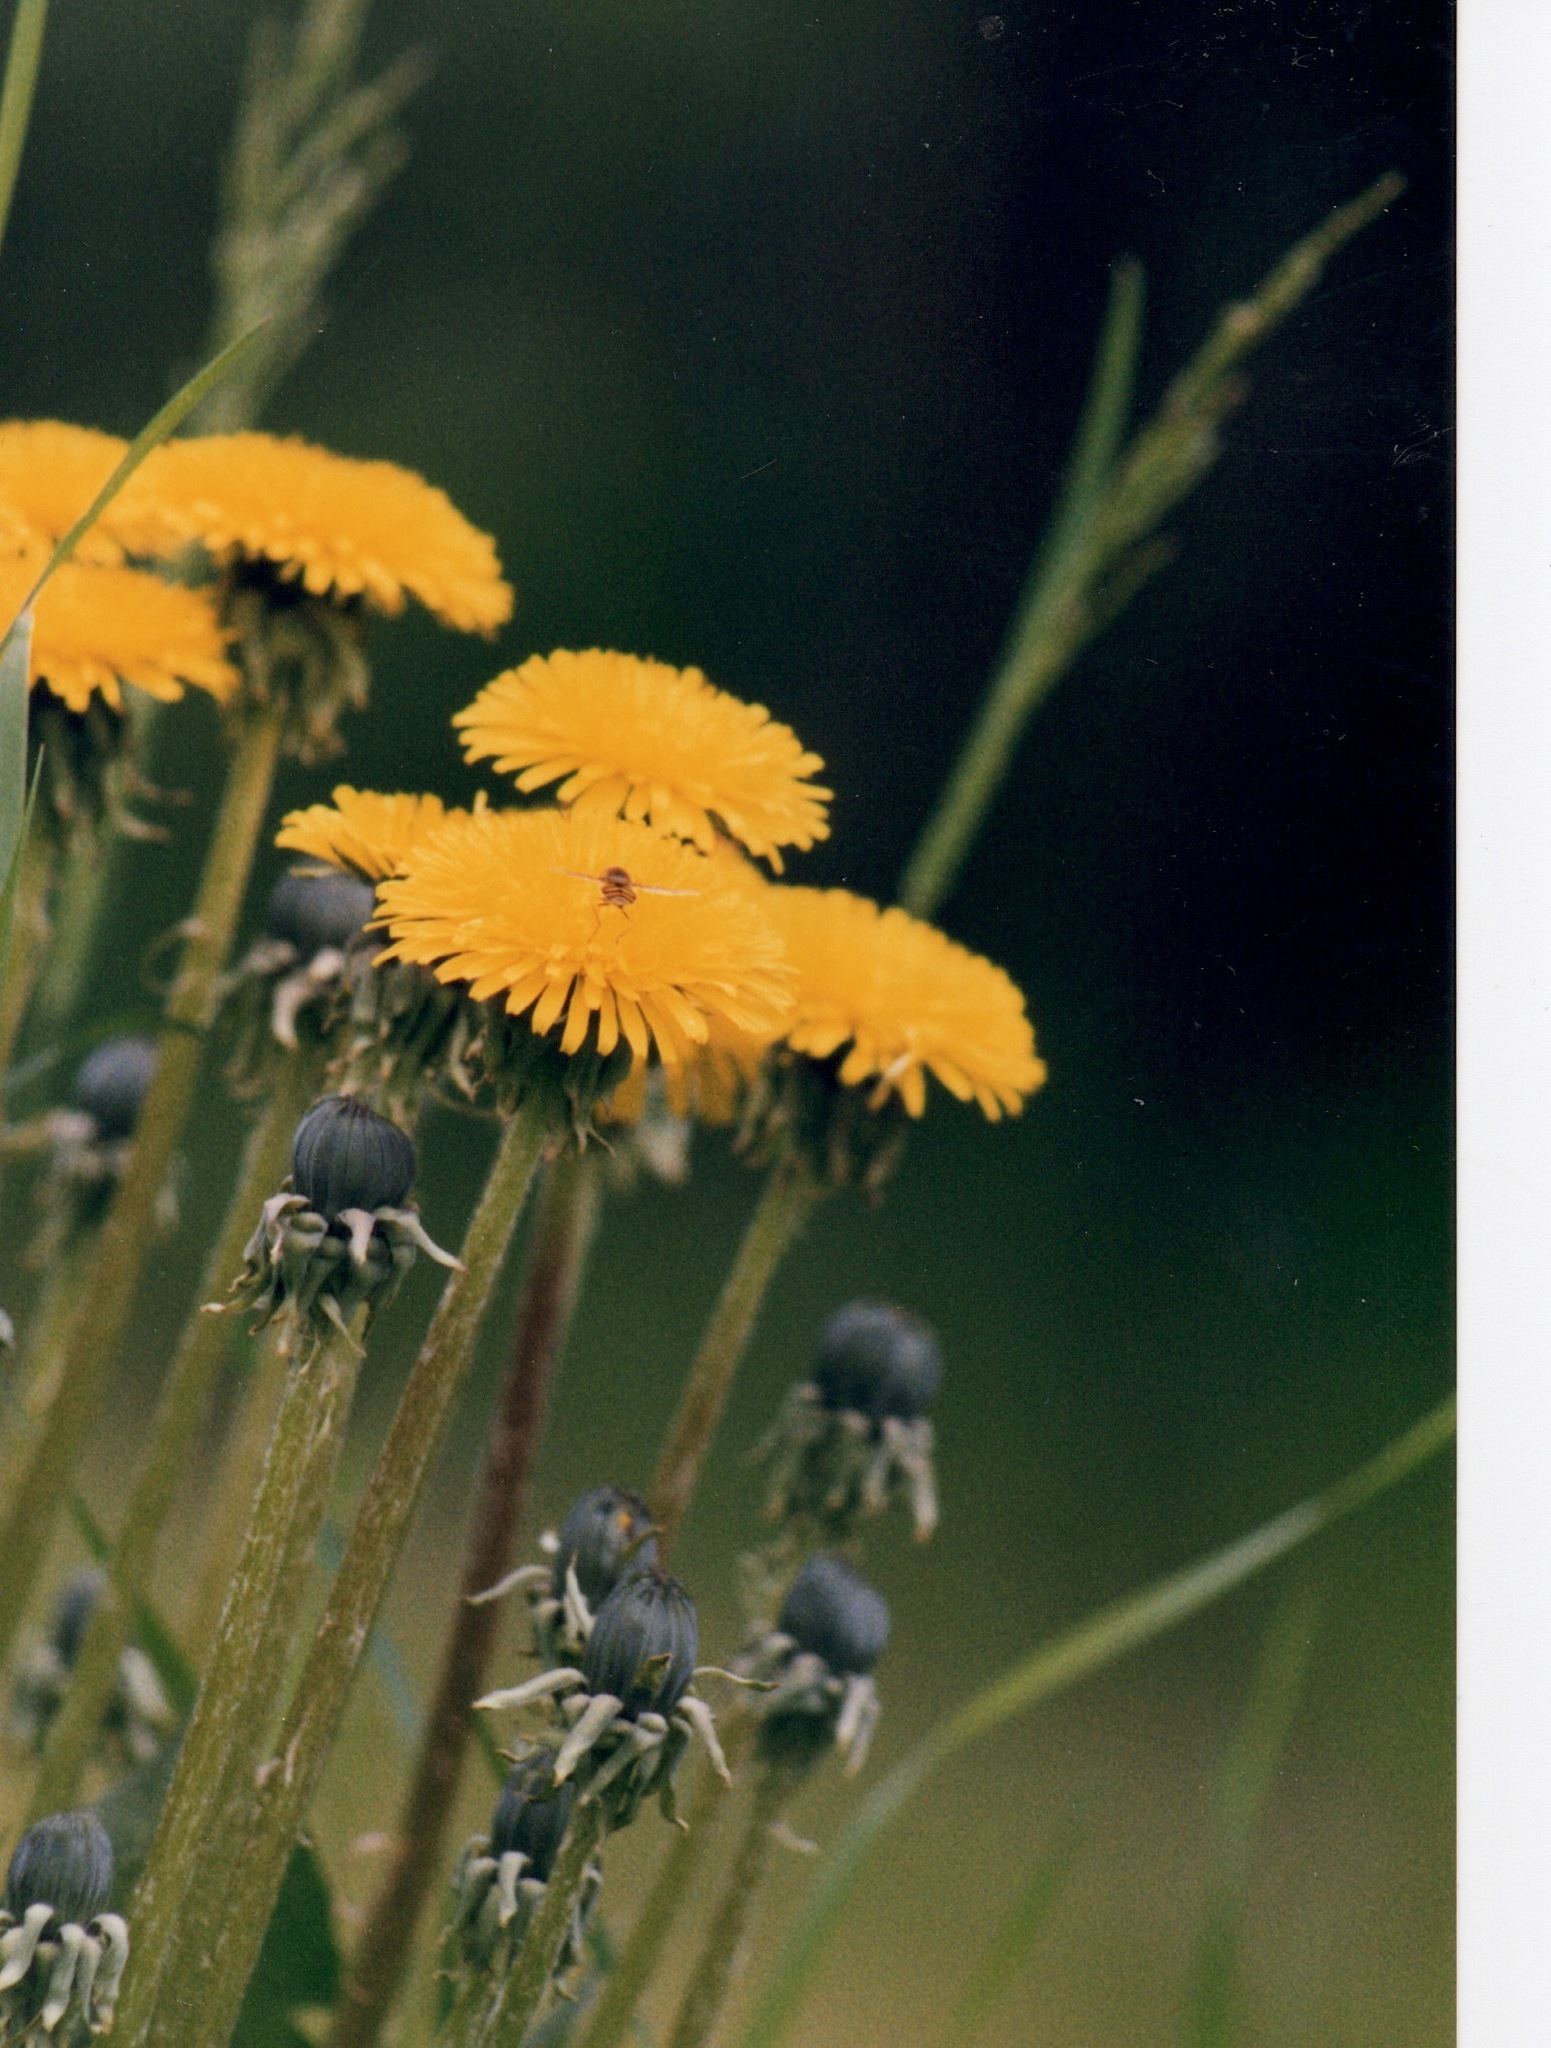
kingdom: Plantae
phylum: Tracheophyta
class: Magnoliopsida
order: Asterales
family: Asteraceae
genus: Taraxacum
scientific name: Taraxacum officinale
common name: Common dandelion
